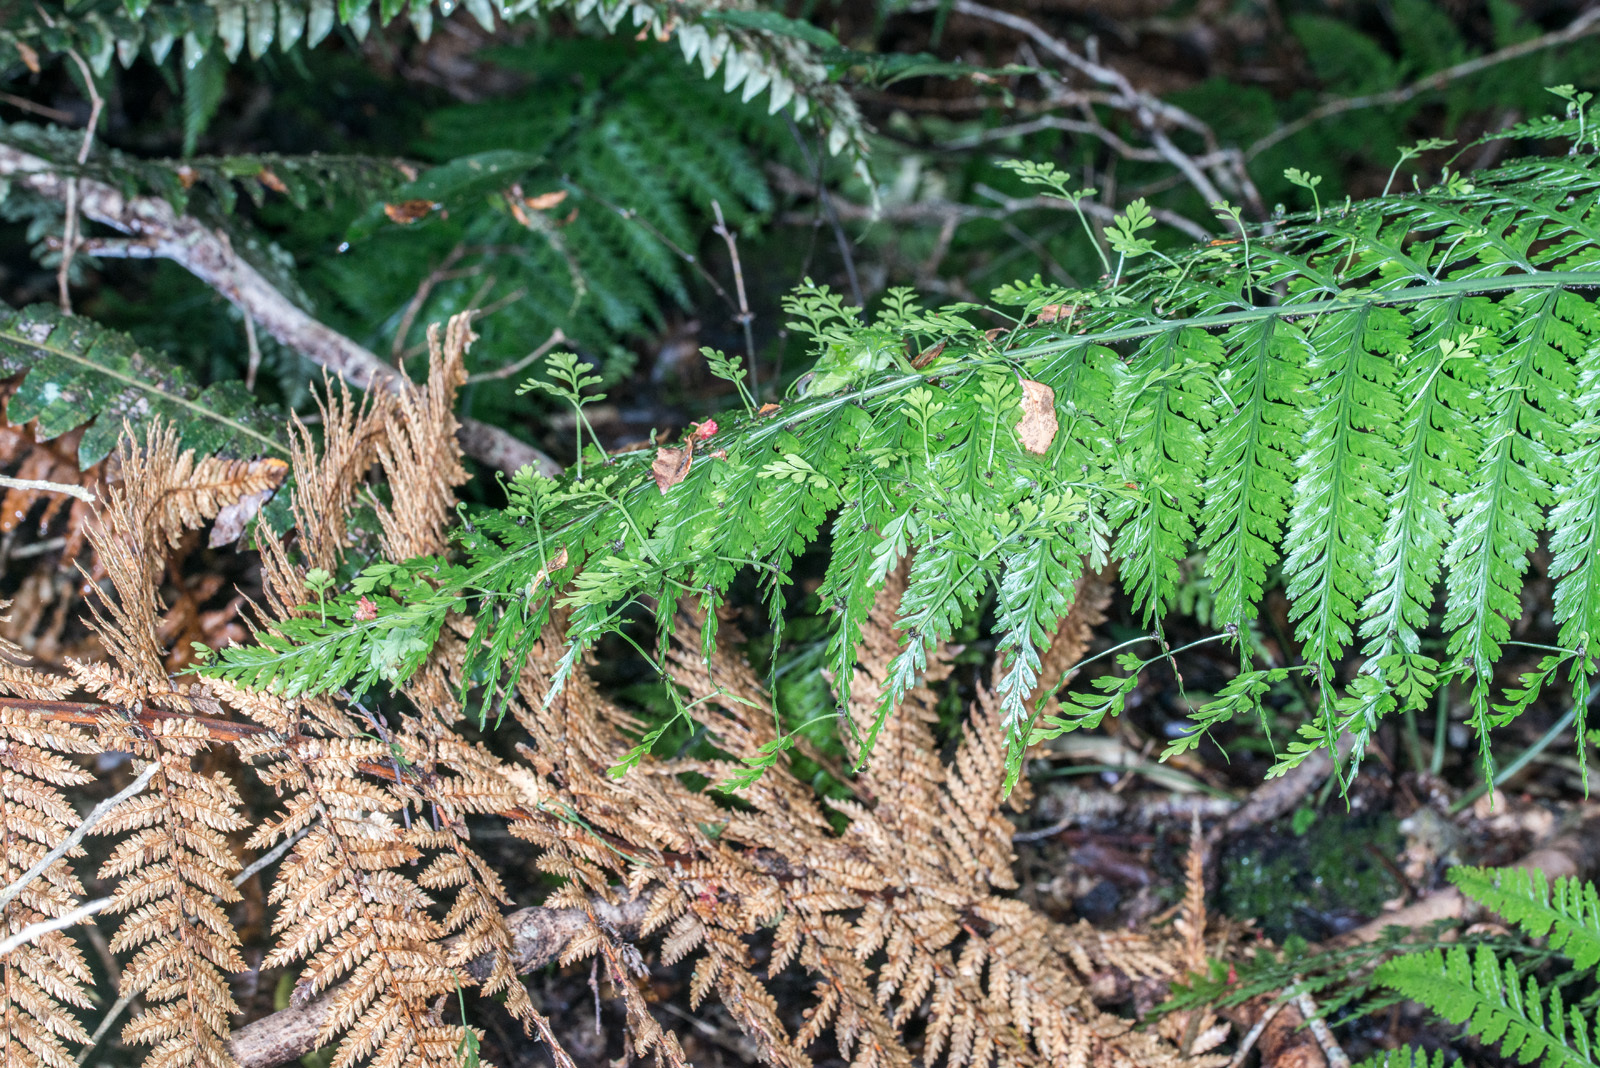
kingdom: Plantae
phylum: Tracheophyta
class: Polypodiopsida
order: Polypodiales
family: Aspleniaceae
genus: Asplenium
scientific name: Asplenium bulbiferum
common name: Mother fern
